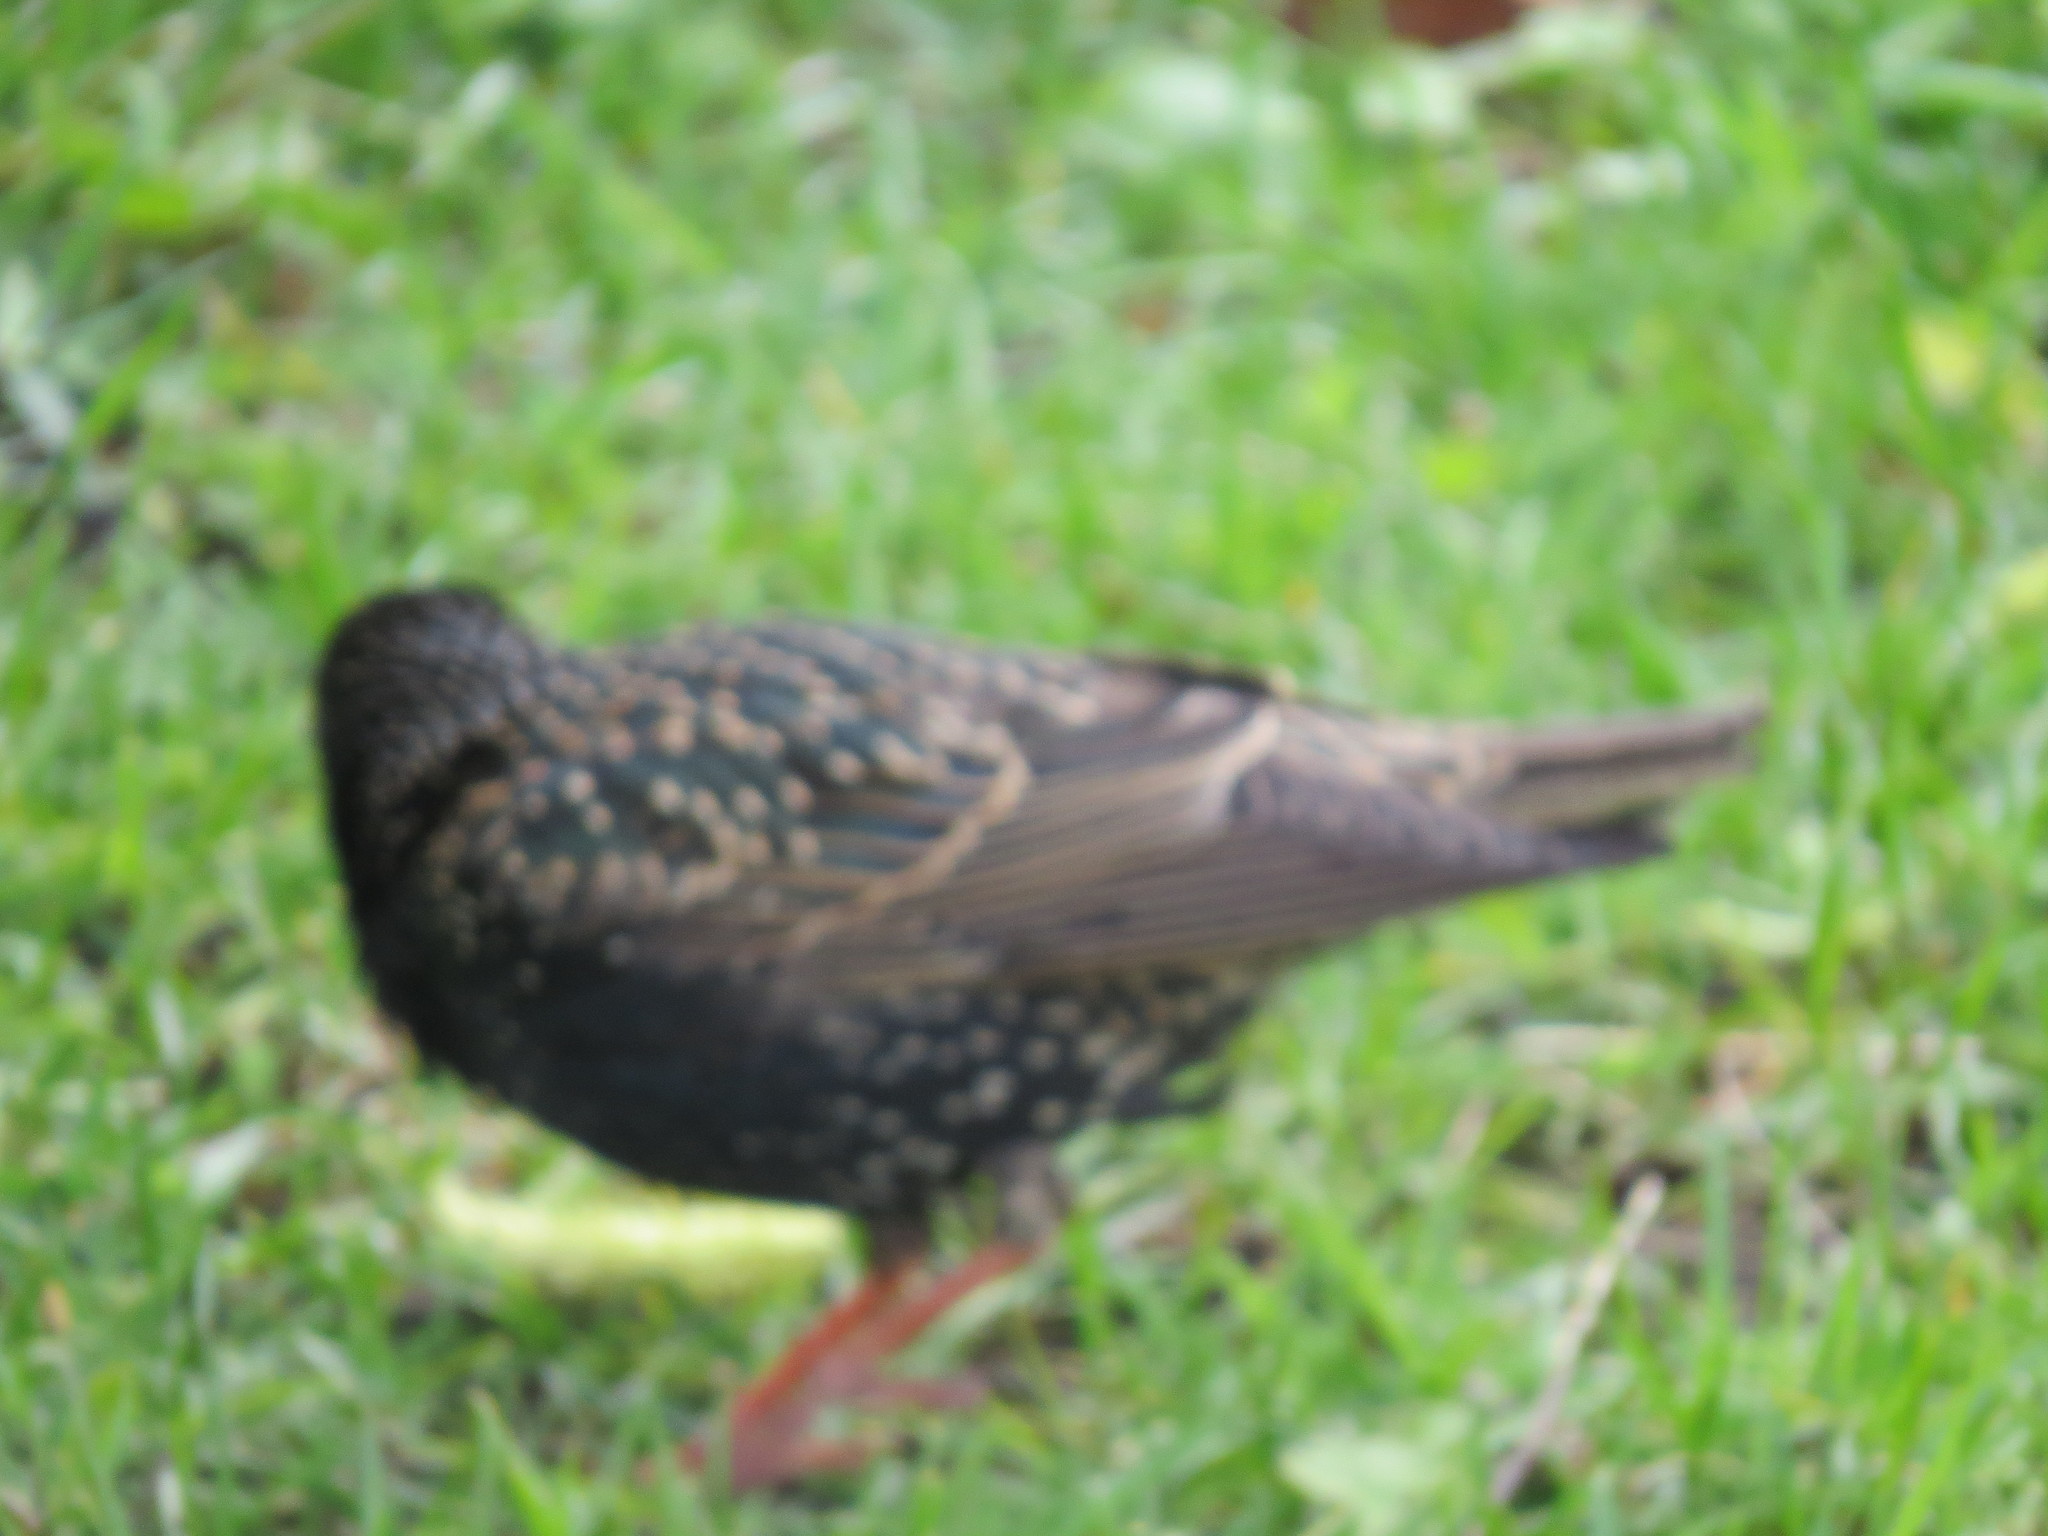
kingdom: Animalia
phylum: Chordata
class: Aves
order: Passeriformes
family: Sturnidae
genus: Sturnus
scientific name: Sturnus vulgaris
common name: Common starling
